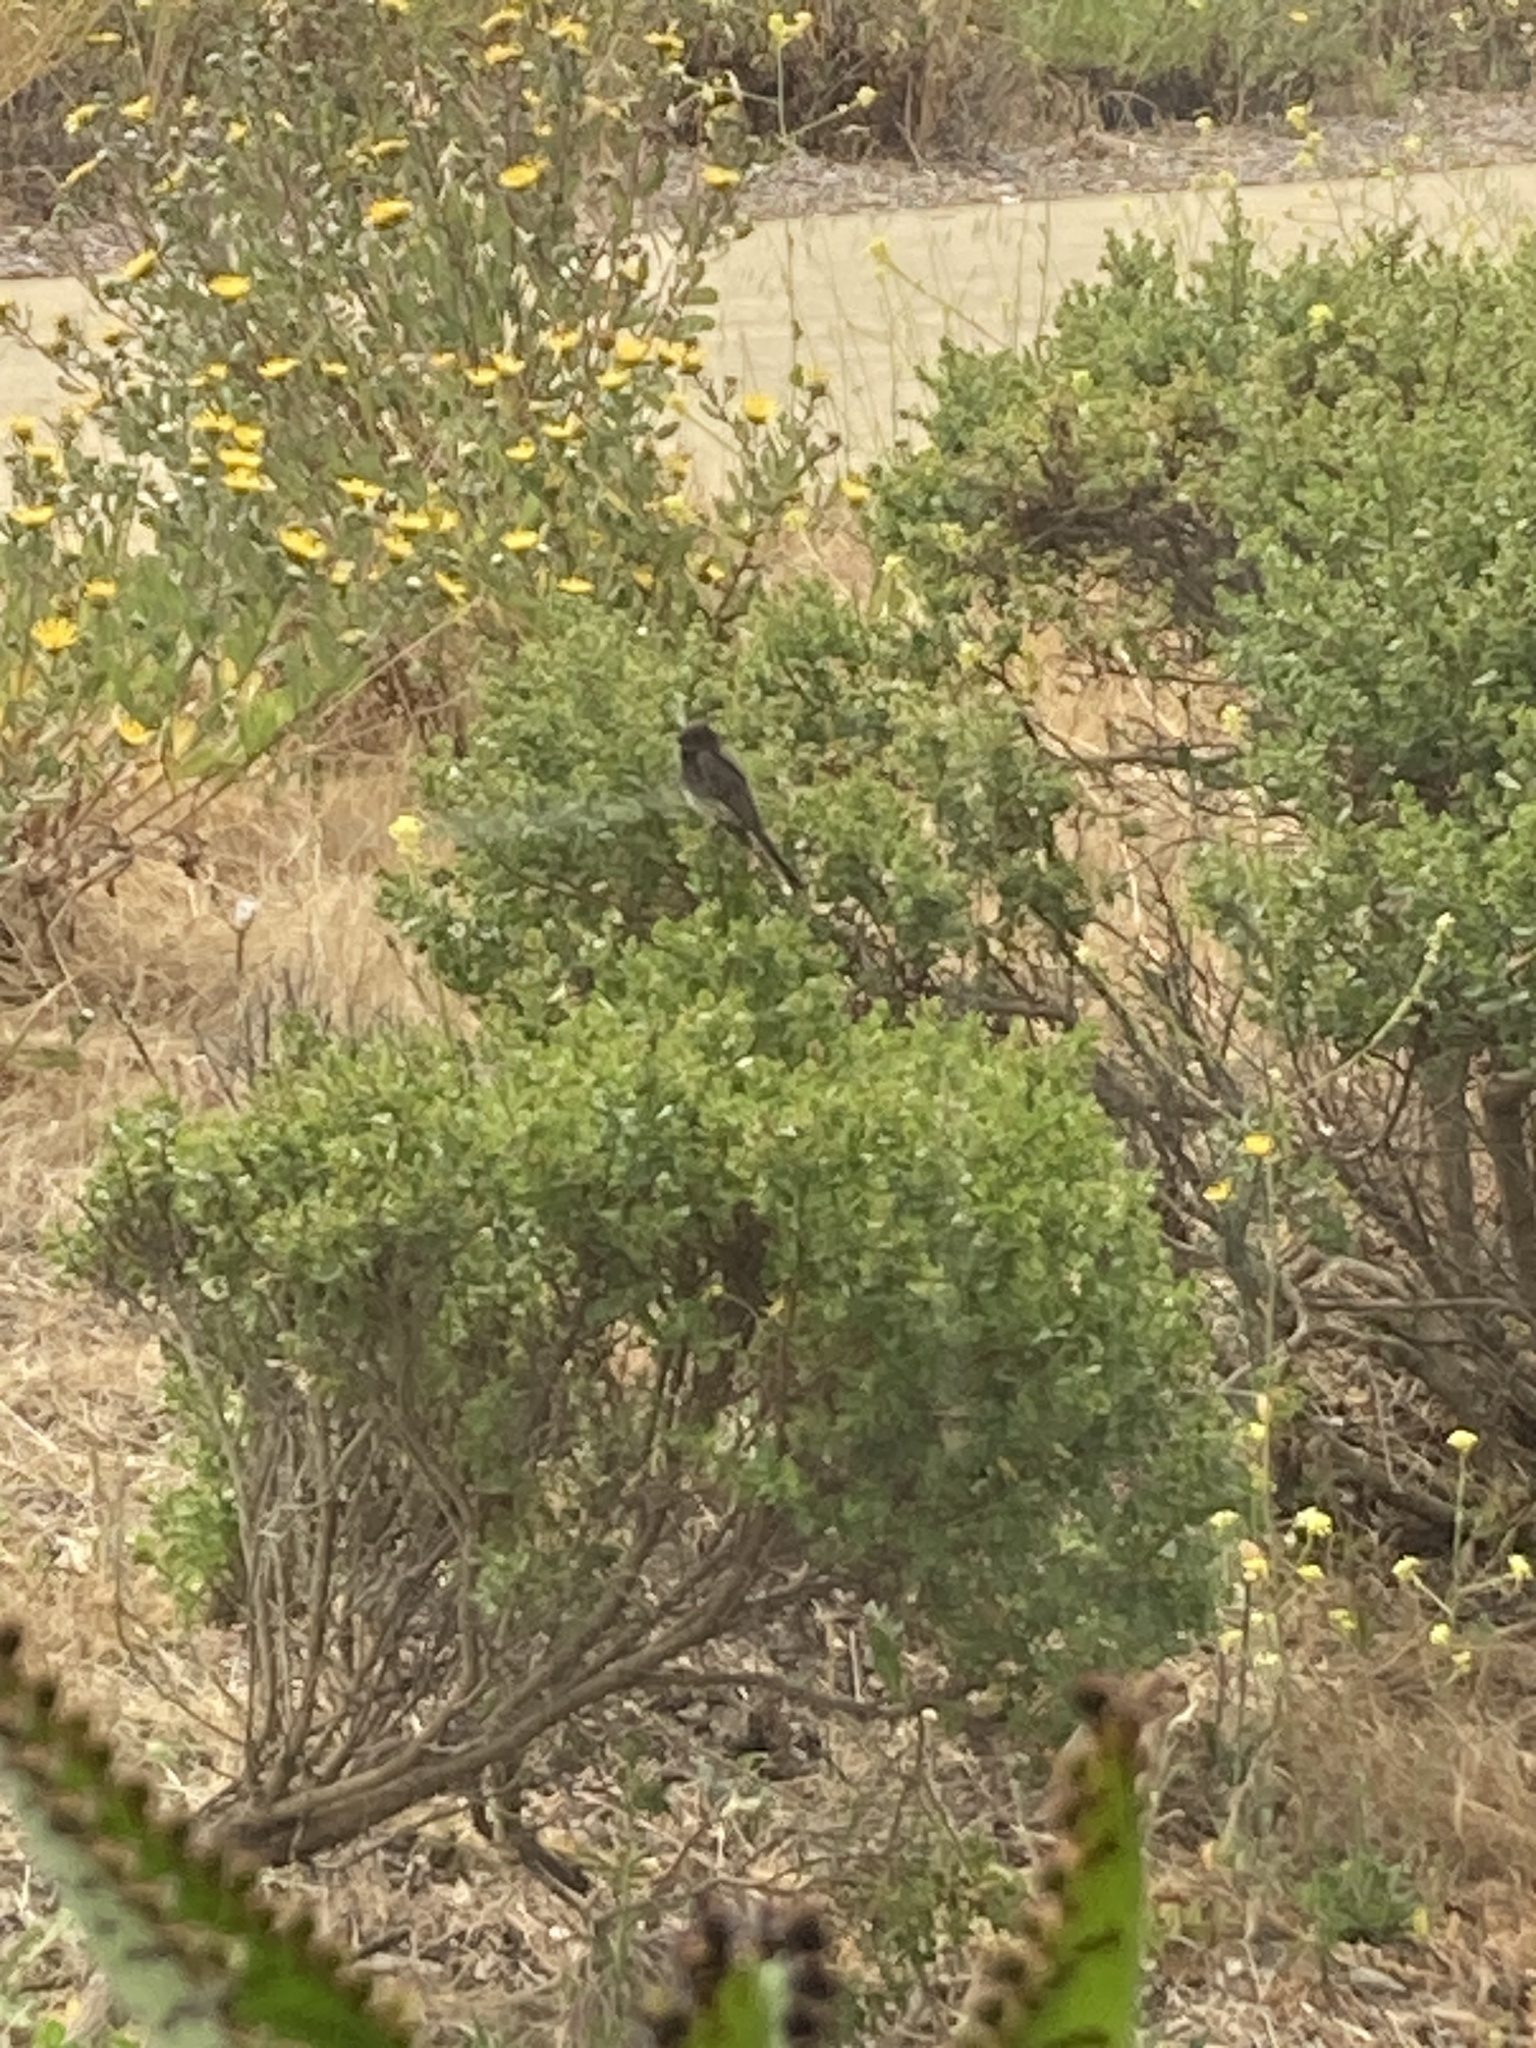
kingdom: Animalia
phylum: Chordata
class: Aves
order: Passeriformes
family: Tyrannidae
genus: Sayornis
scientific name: Sayornis nigricans
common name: Black phoebe
